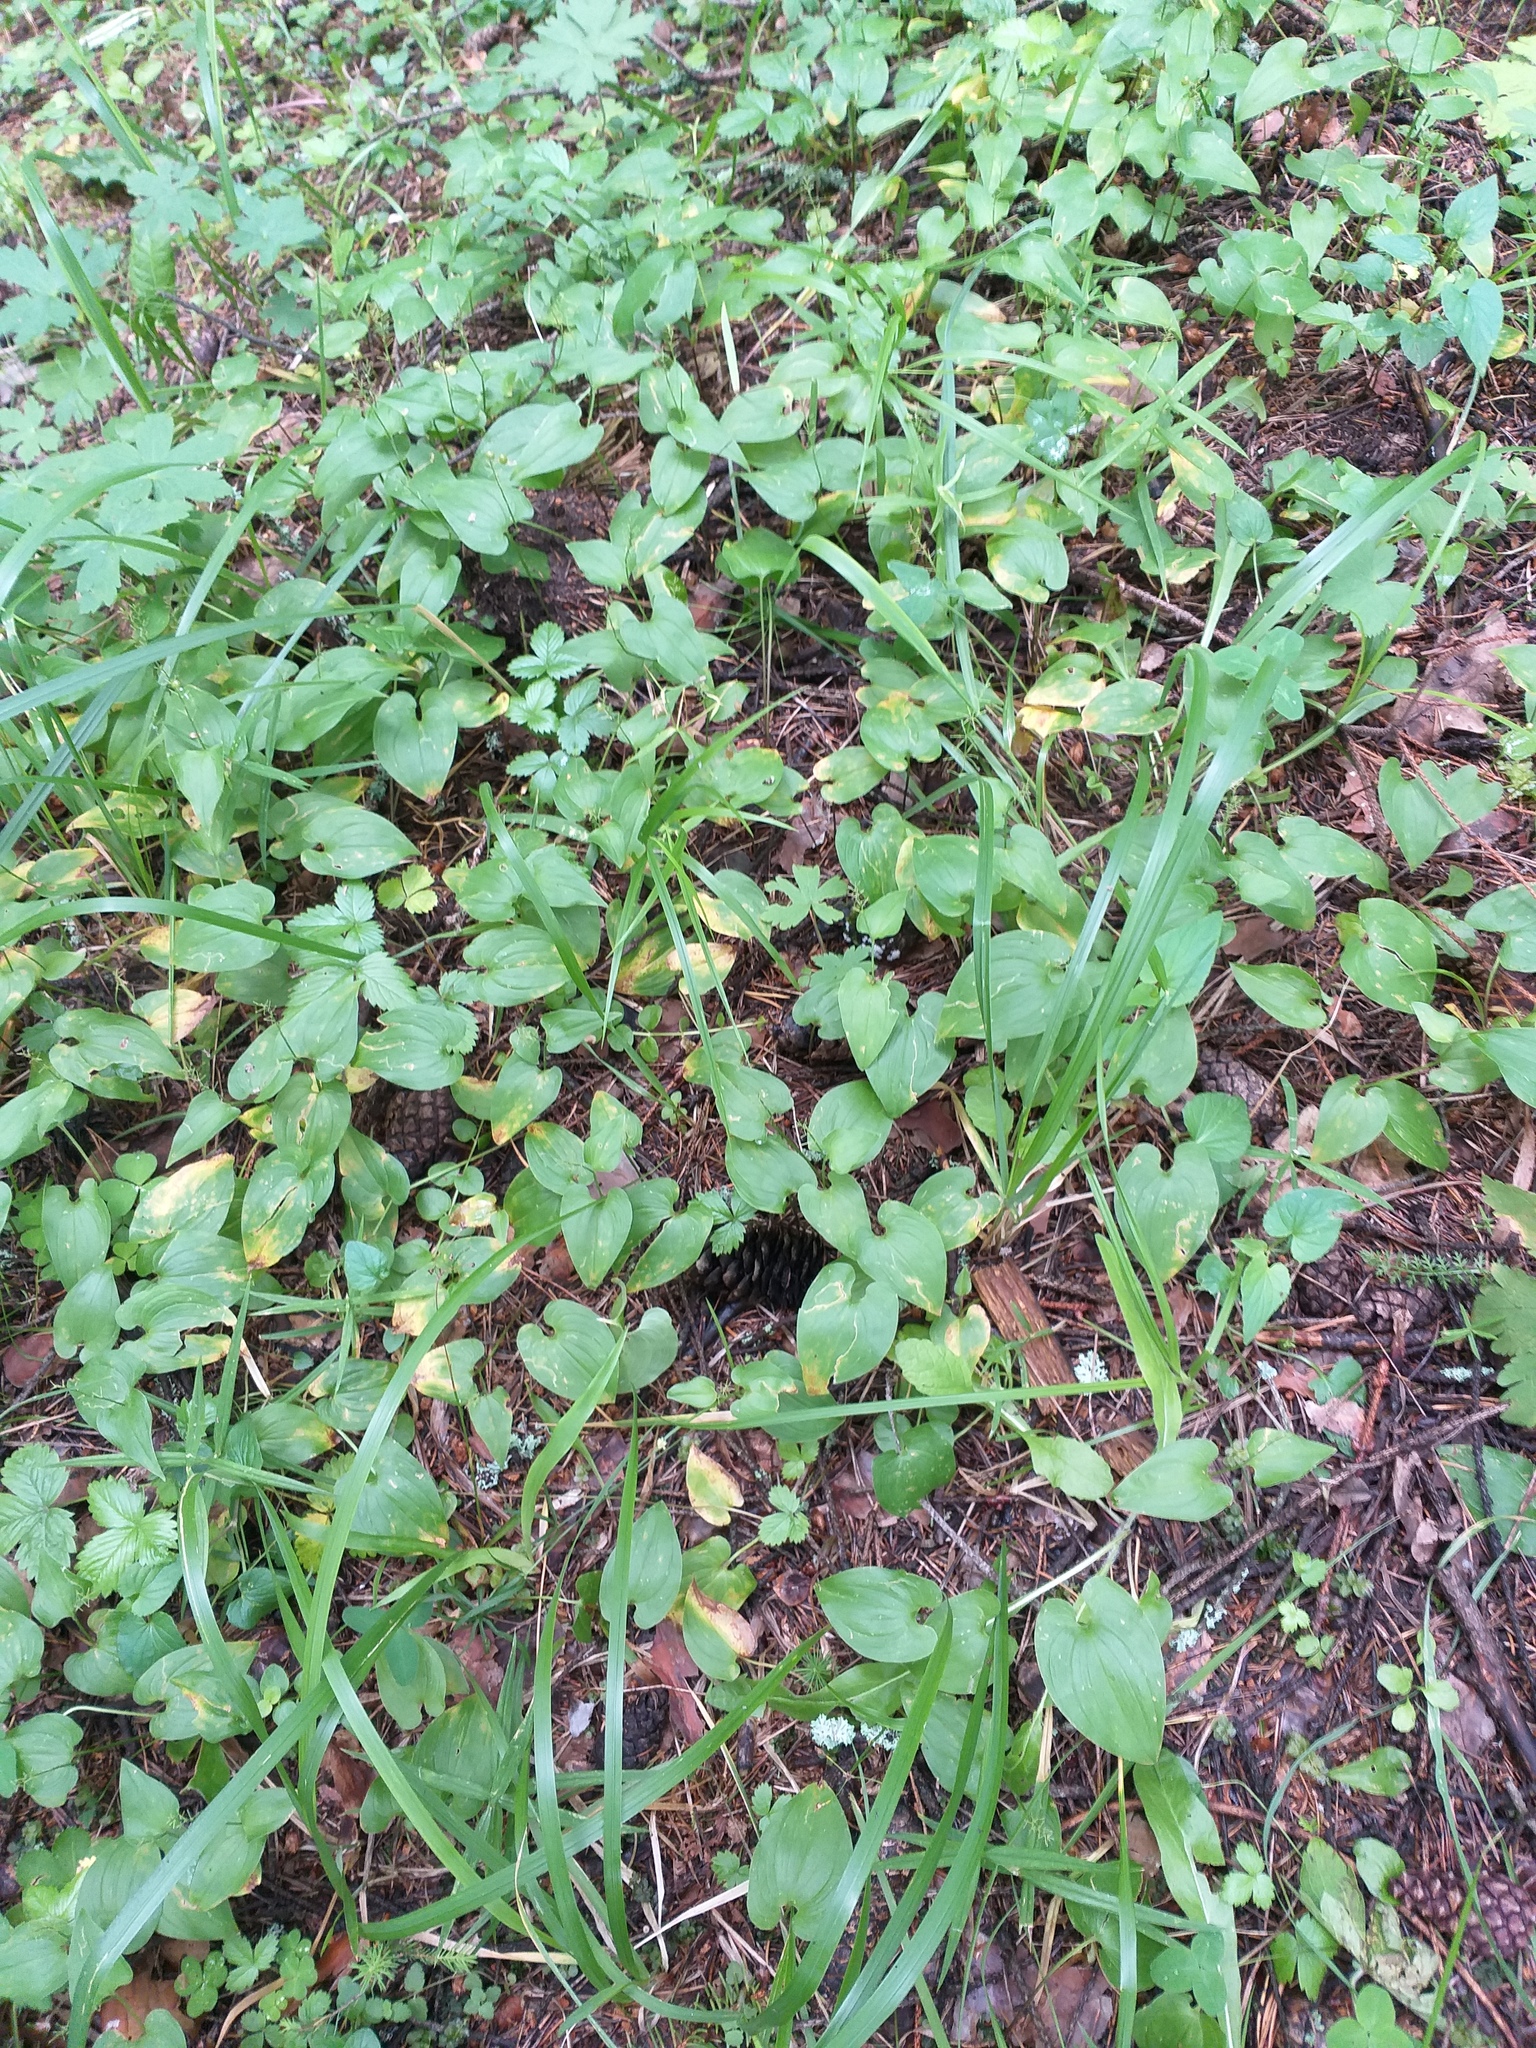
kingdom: Plantae
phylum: Tracheophyta
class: Liliopsida
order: Asparagales
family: Asparagaceae
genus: Maianthemum
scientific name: Maianthemum bifolium
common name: May lily
